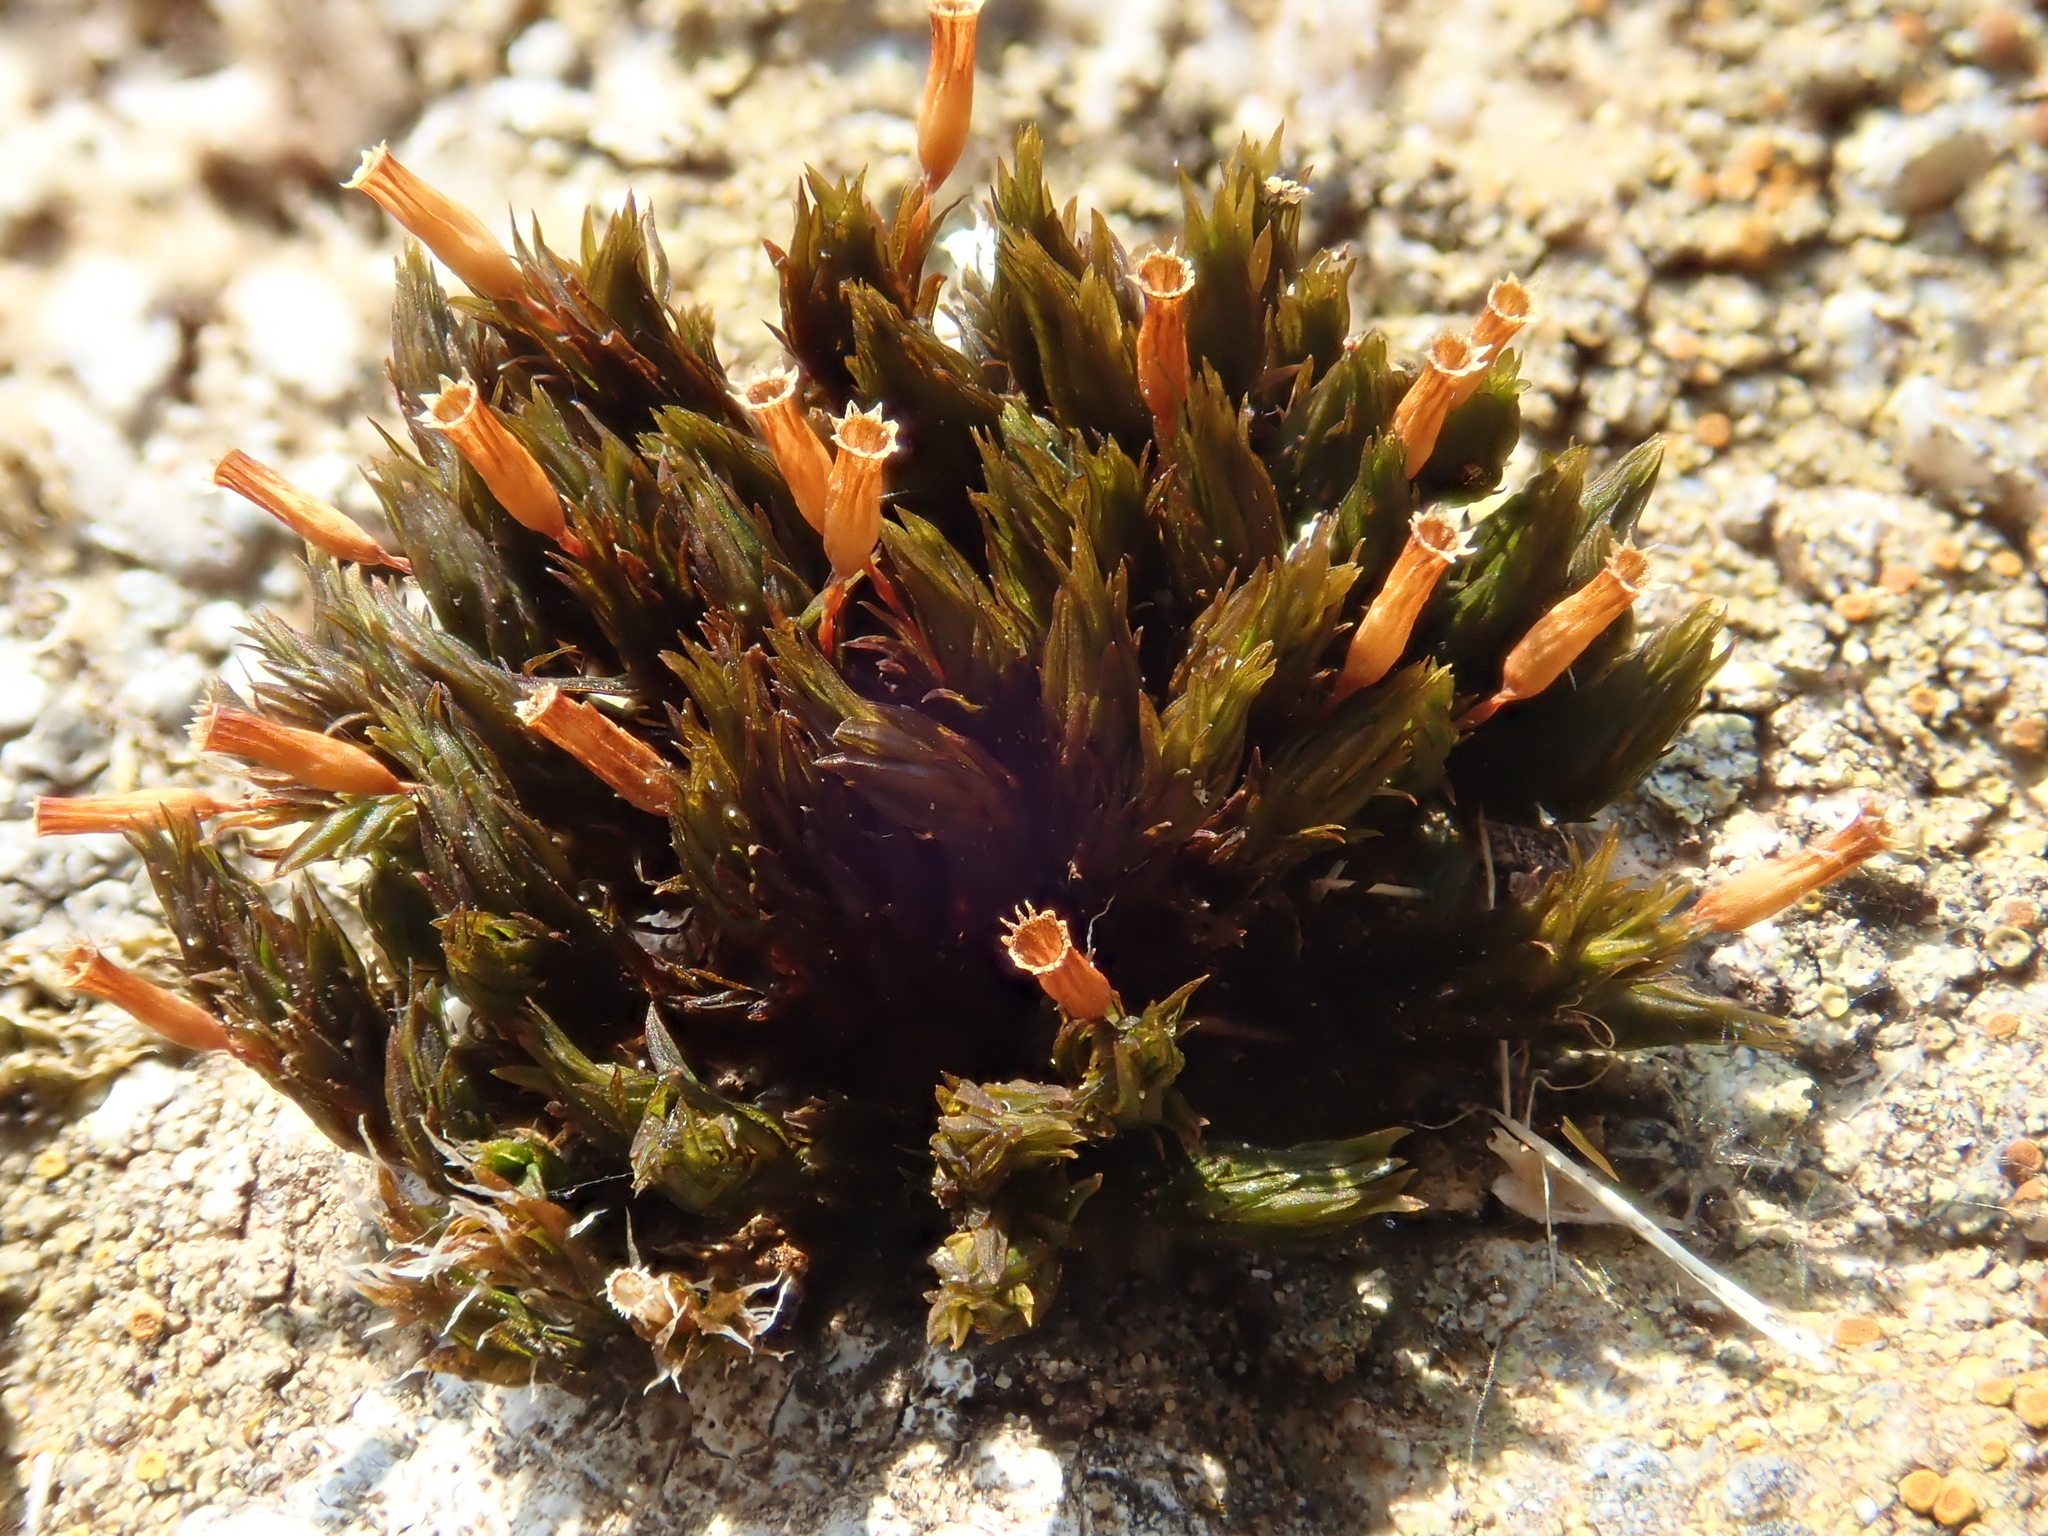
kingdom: Plantae
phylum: Bryophyta
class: Bryopsida
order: Orthotrichales
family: Orthotrichaceae
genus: Orthotrichum
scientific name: Orthotrichum anomalum
